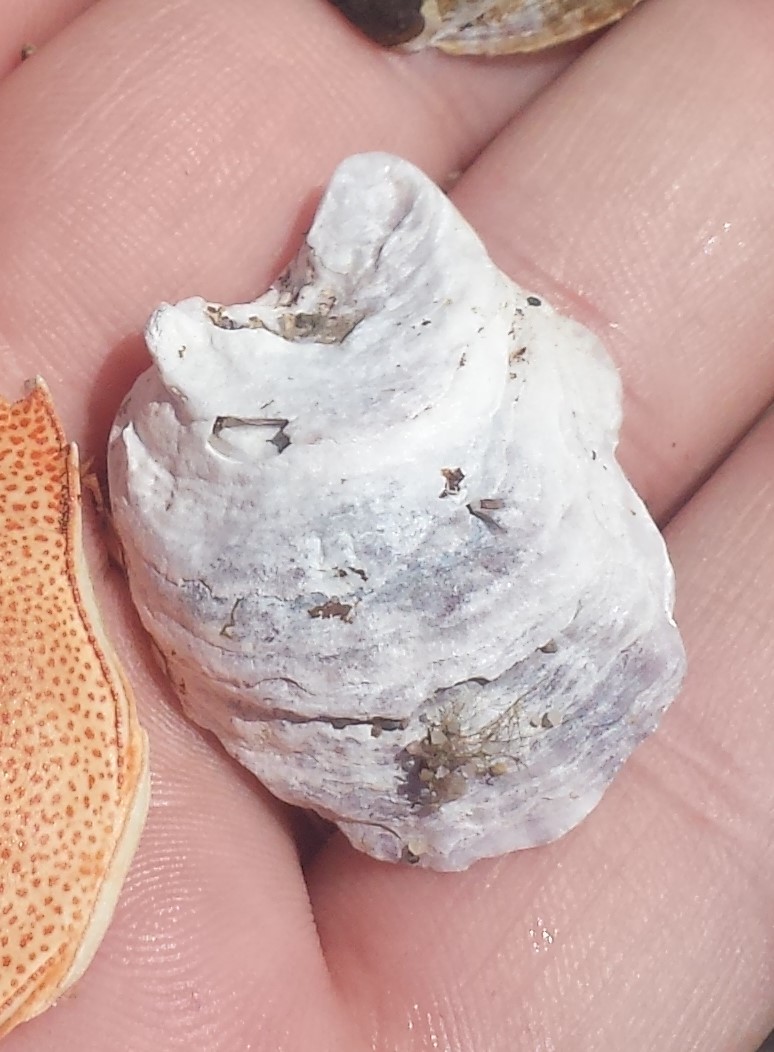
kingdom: Animalia
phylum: Mollusca
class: Bivalvia
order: Ostreida
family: Ostreidae
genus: Crassostrea
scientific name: Crassostrea virginica
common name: American oyster
